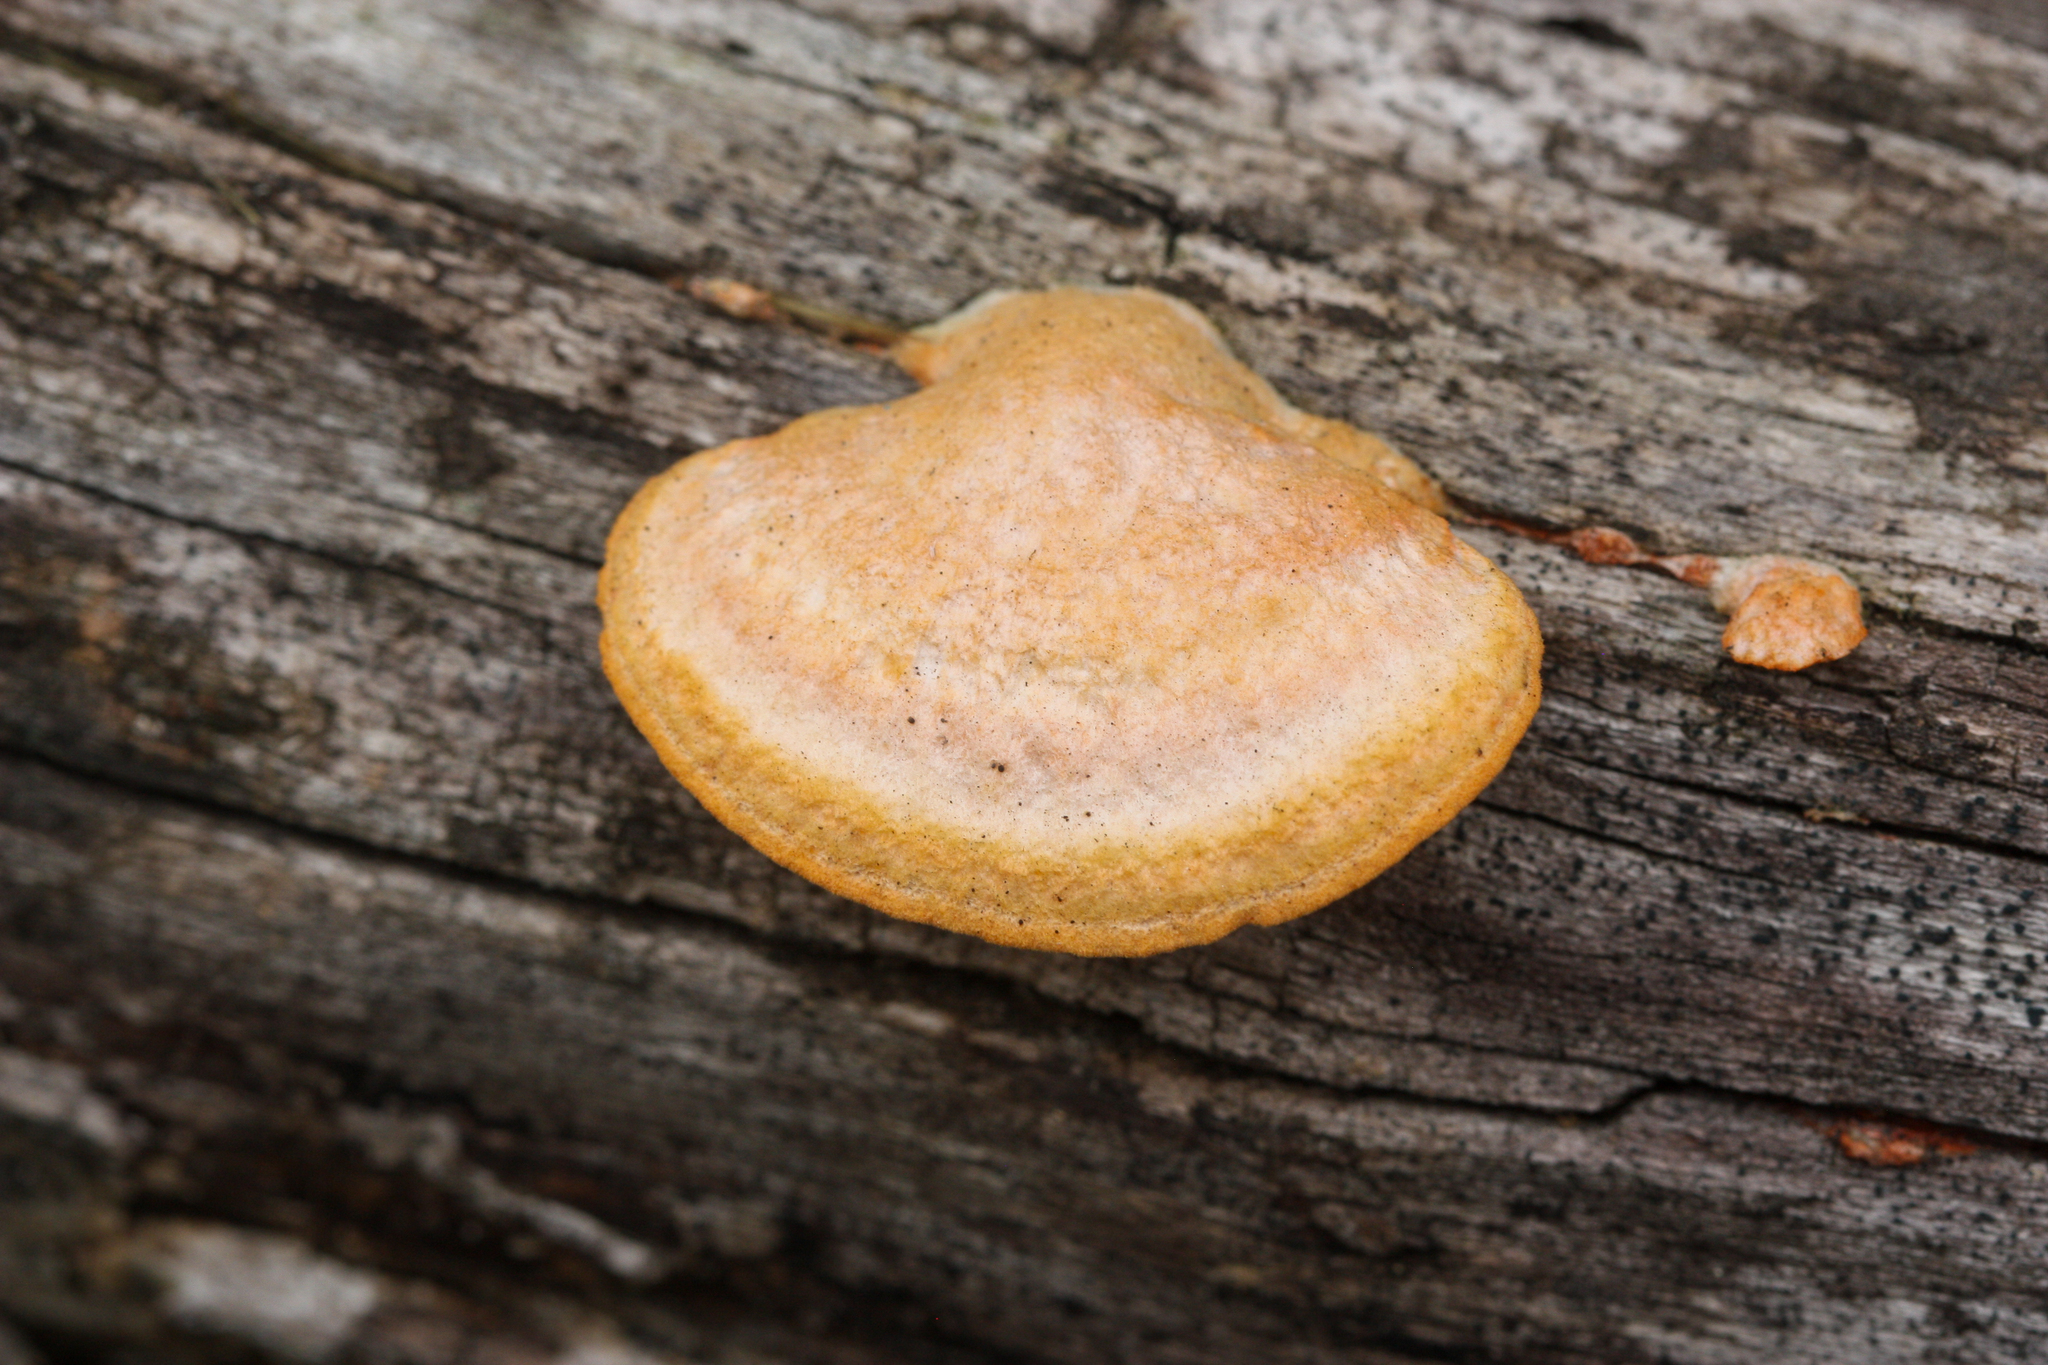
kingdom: Fungi
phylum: Basidiomycota
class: Agaricomycetes
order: Polyporales
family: Polyporaceae
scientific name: Polyporaceae
